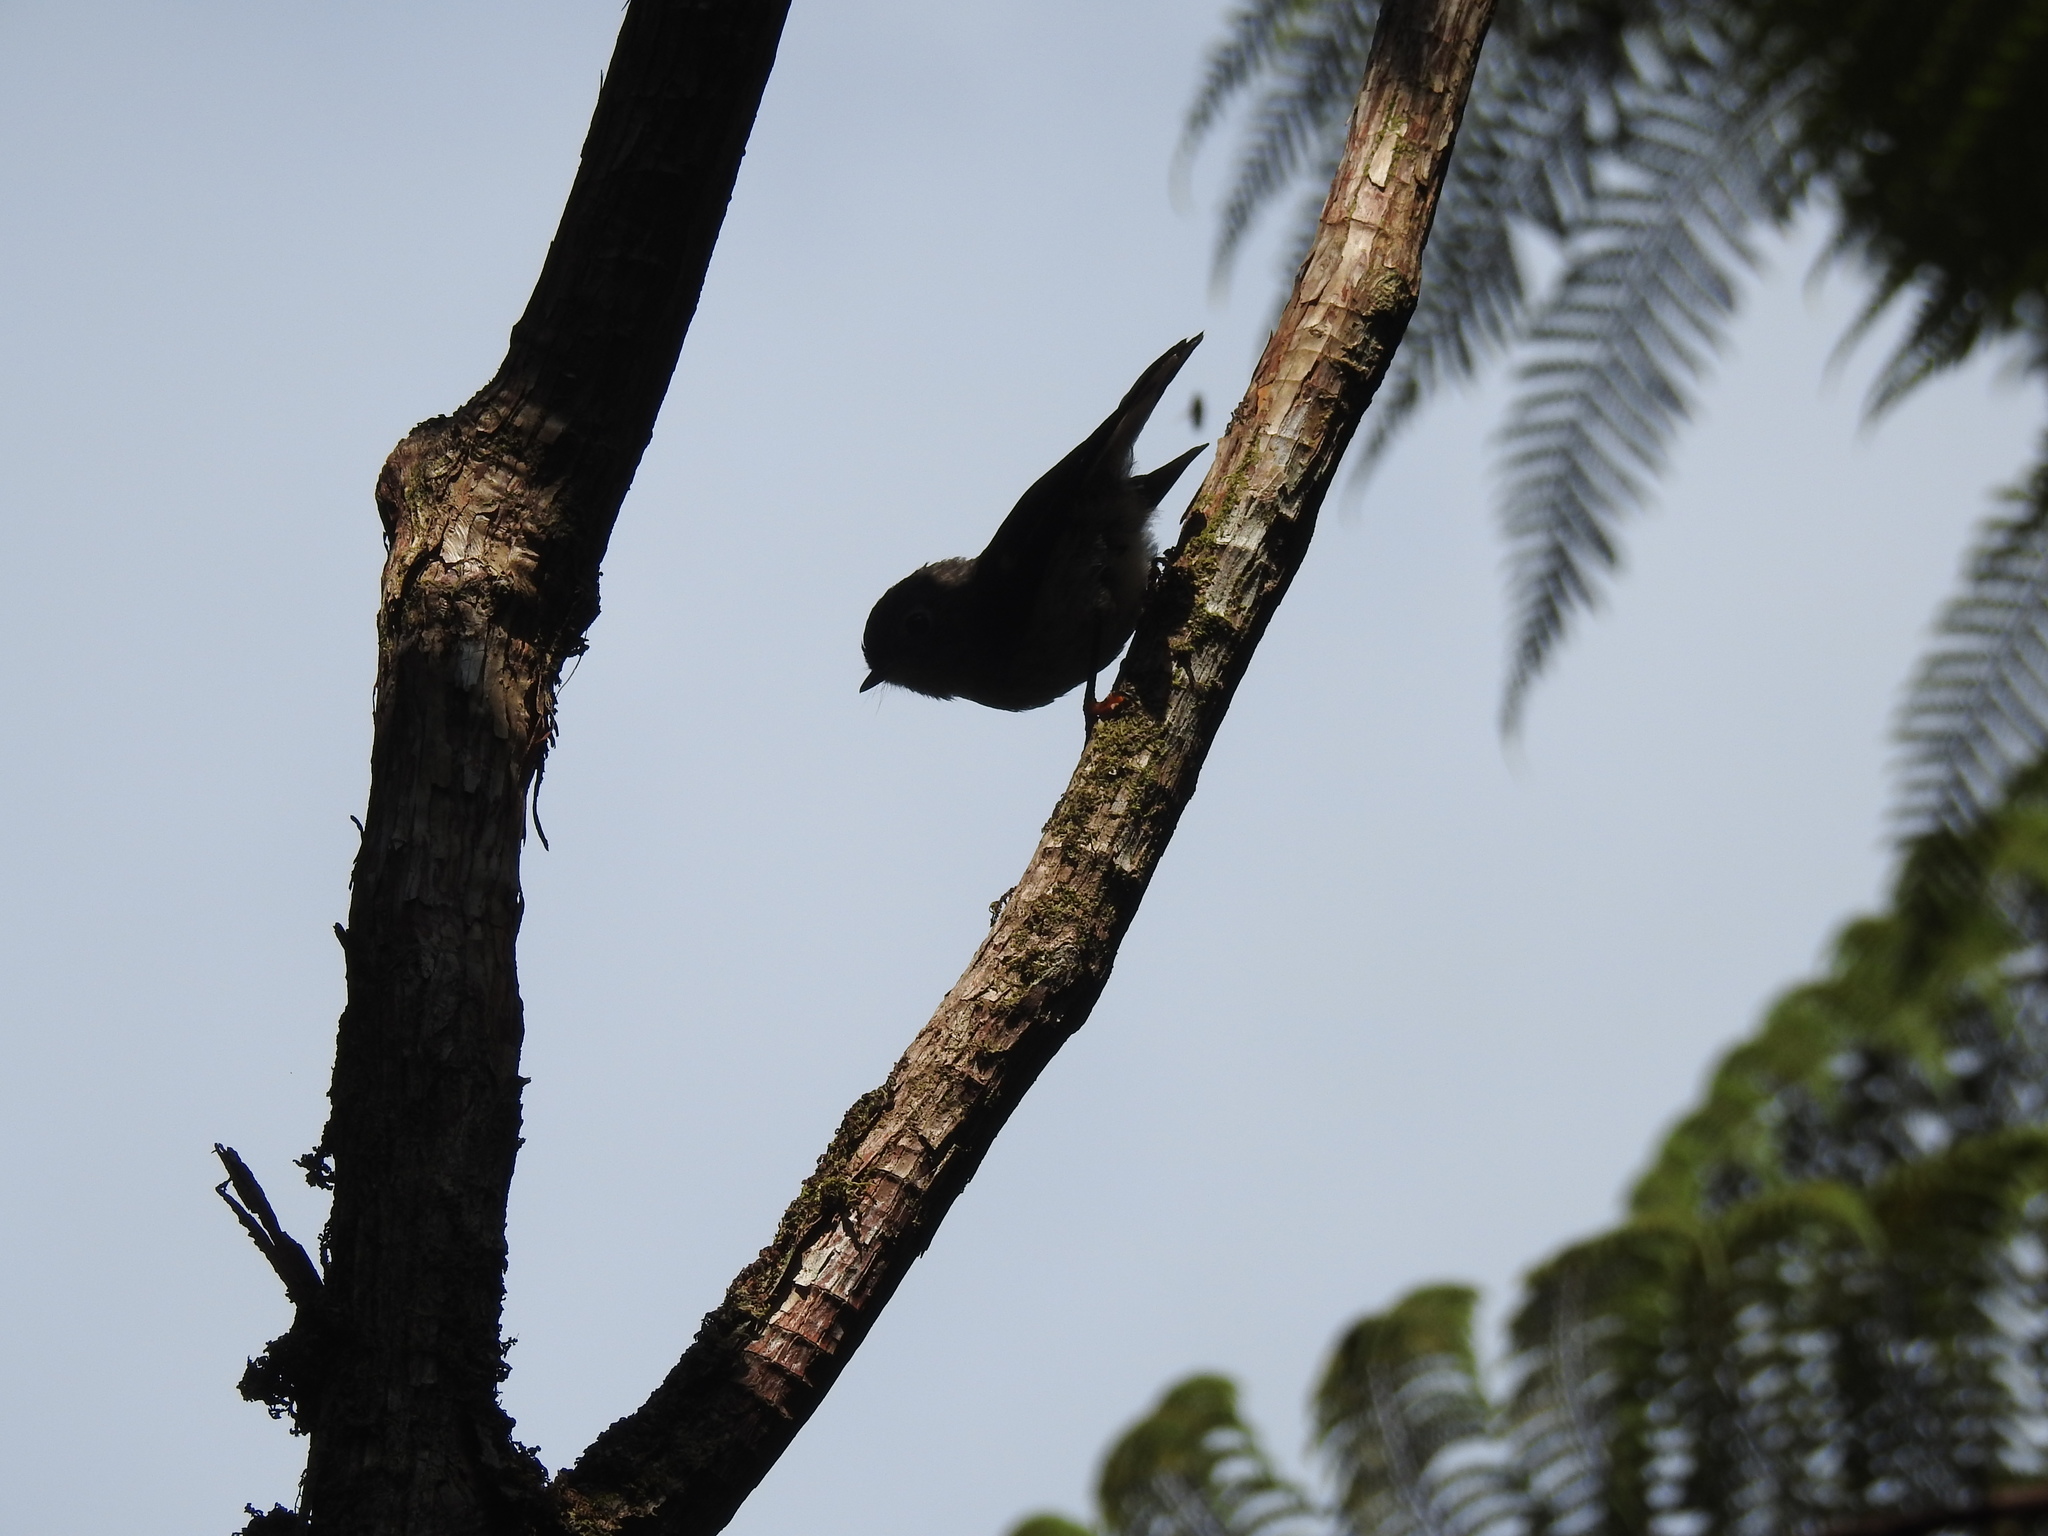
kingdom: Animalia
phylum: Chordata
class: Aves
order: Passeriformes
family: Petroicidae
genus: Petroica
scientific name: Petroica macrocephala
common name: Tomtit
